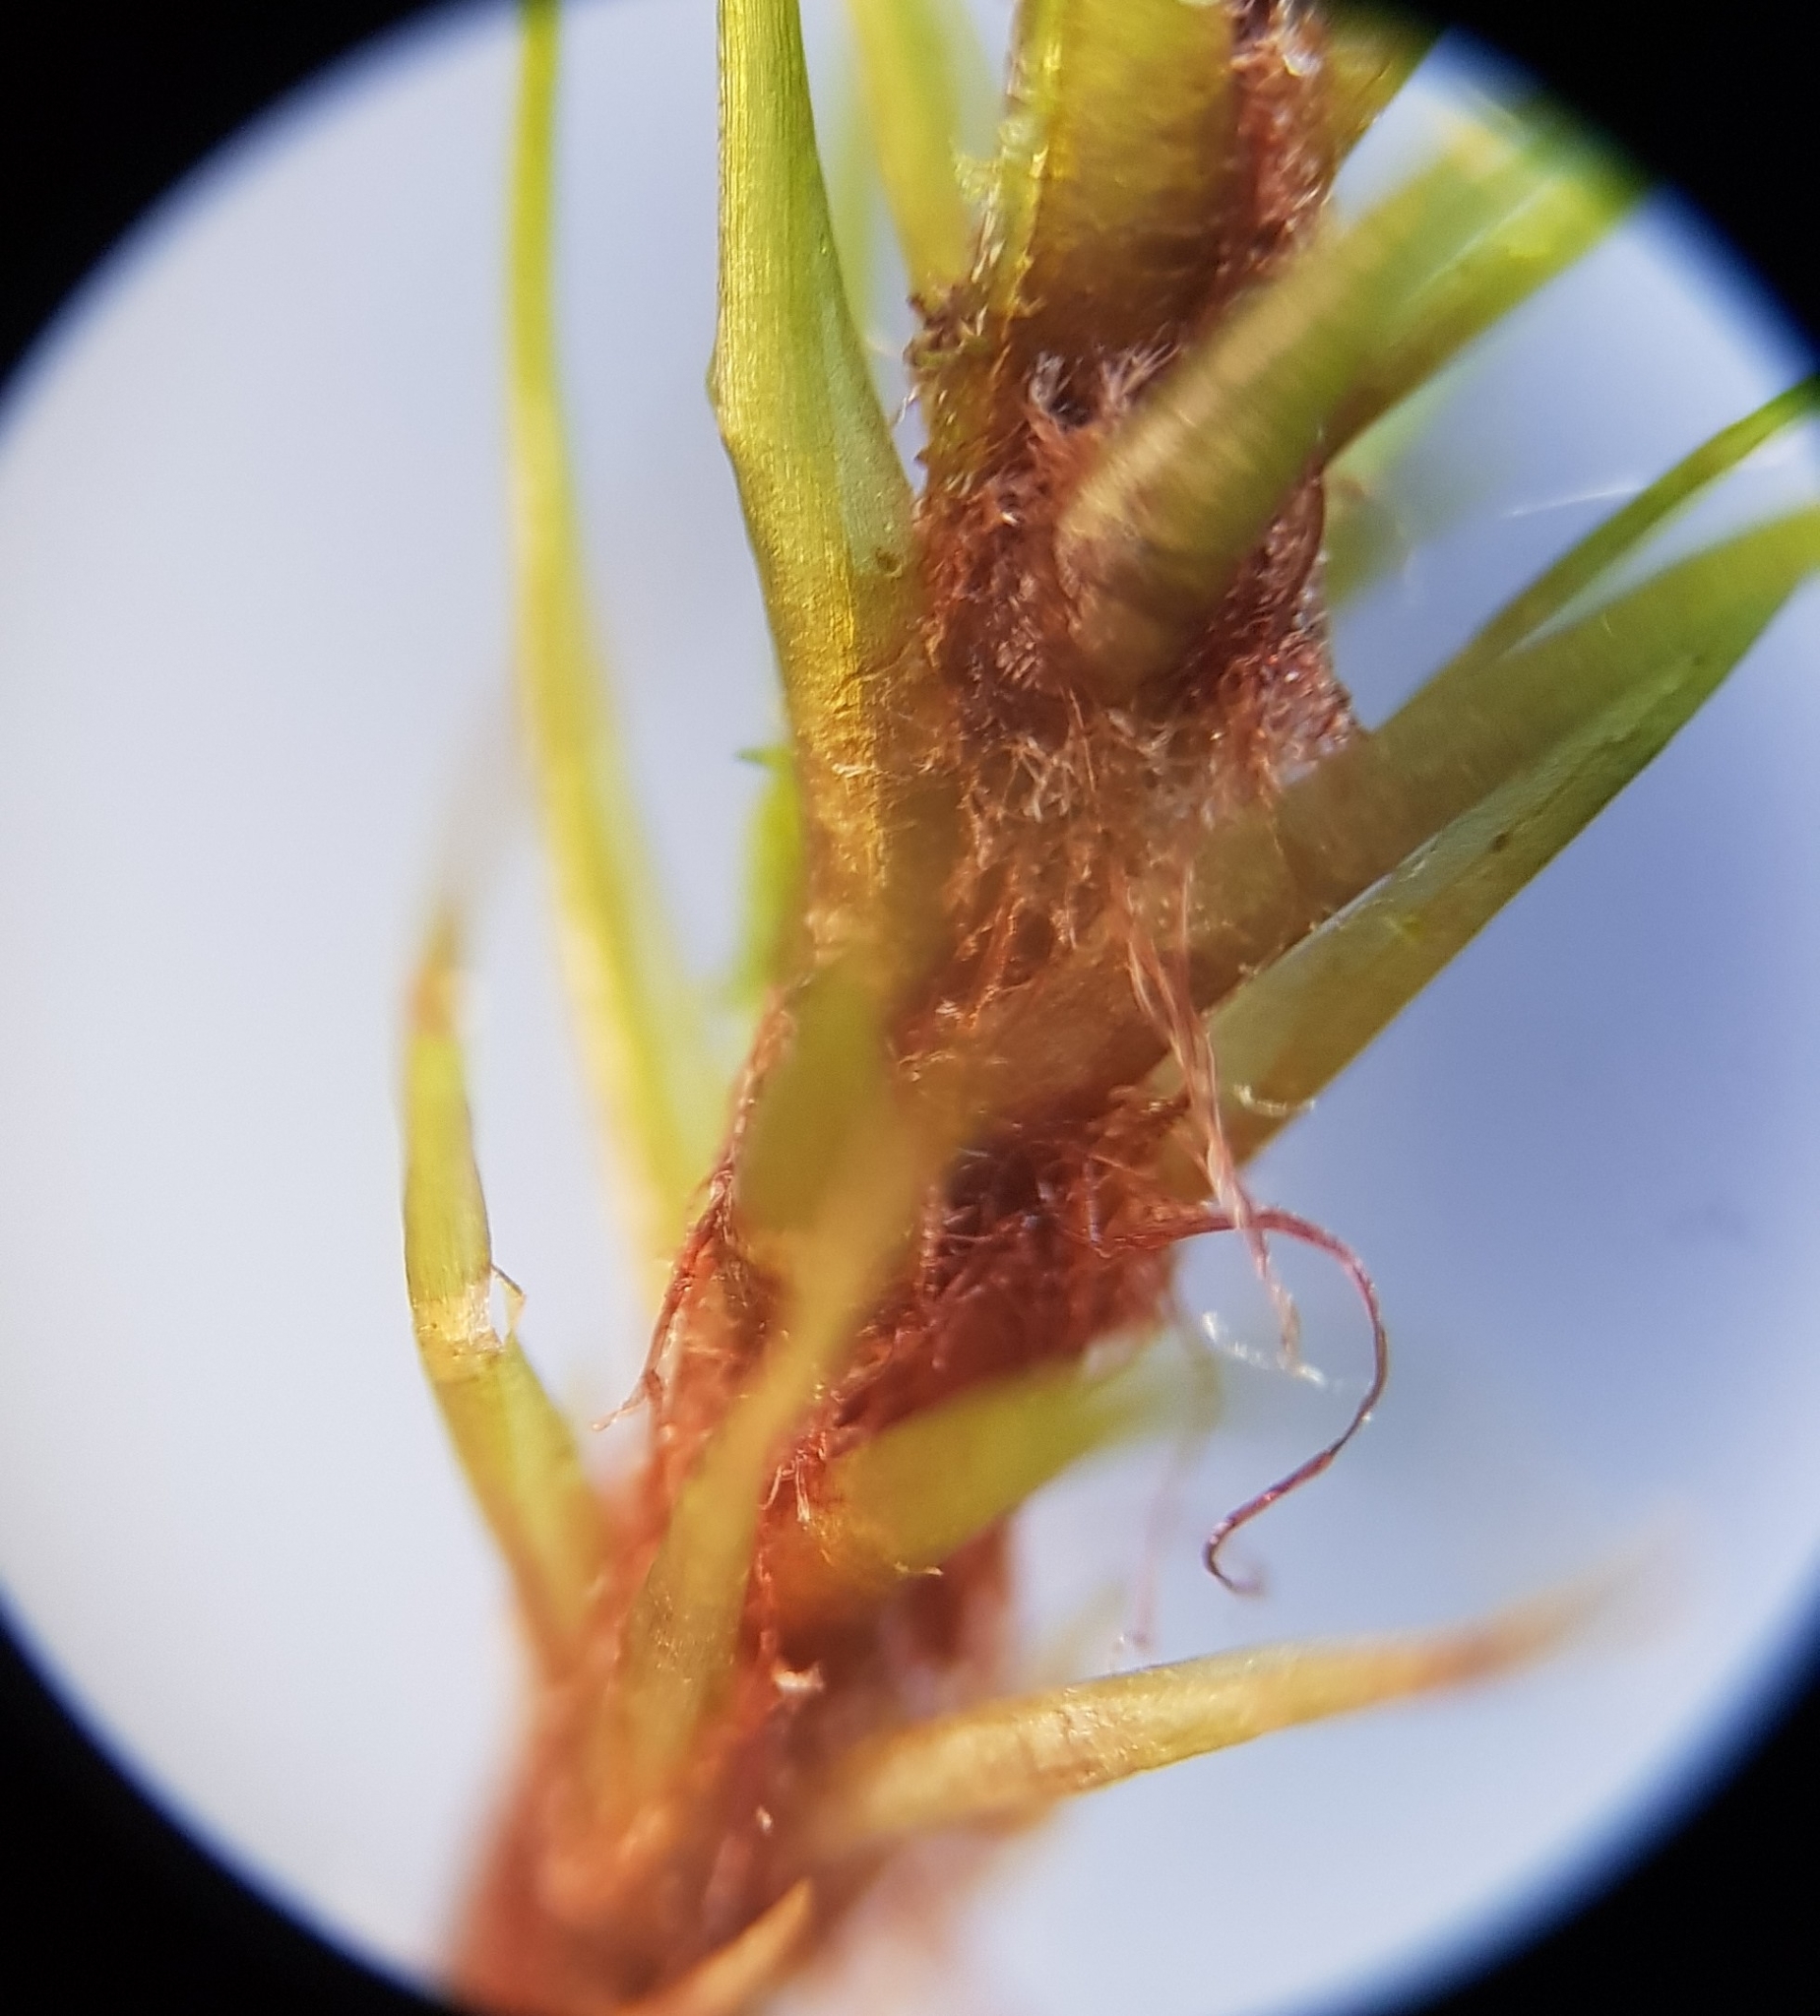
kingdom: Plantae
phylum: Bryophyta
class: Bryopsida
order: Dicranales
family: Leucobryaceae
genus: Dicranodontium
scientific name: Dicranodontium denudatum
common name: Beaked bow moss
